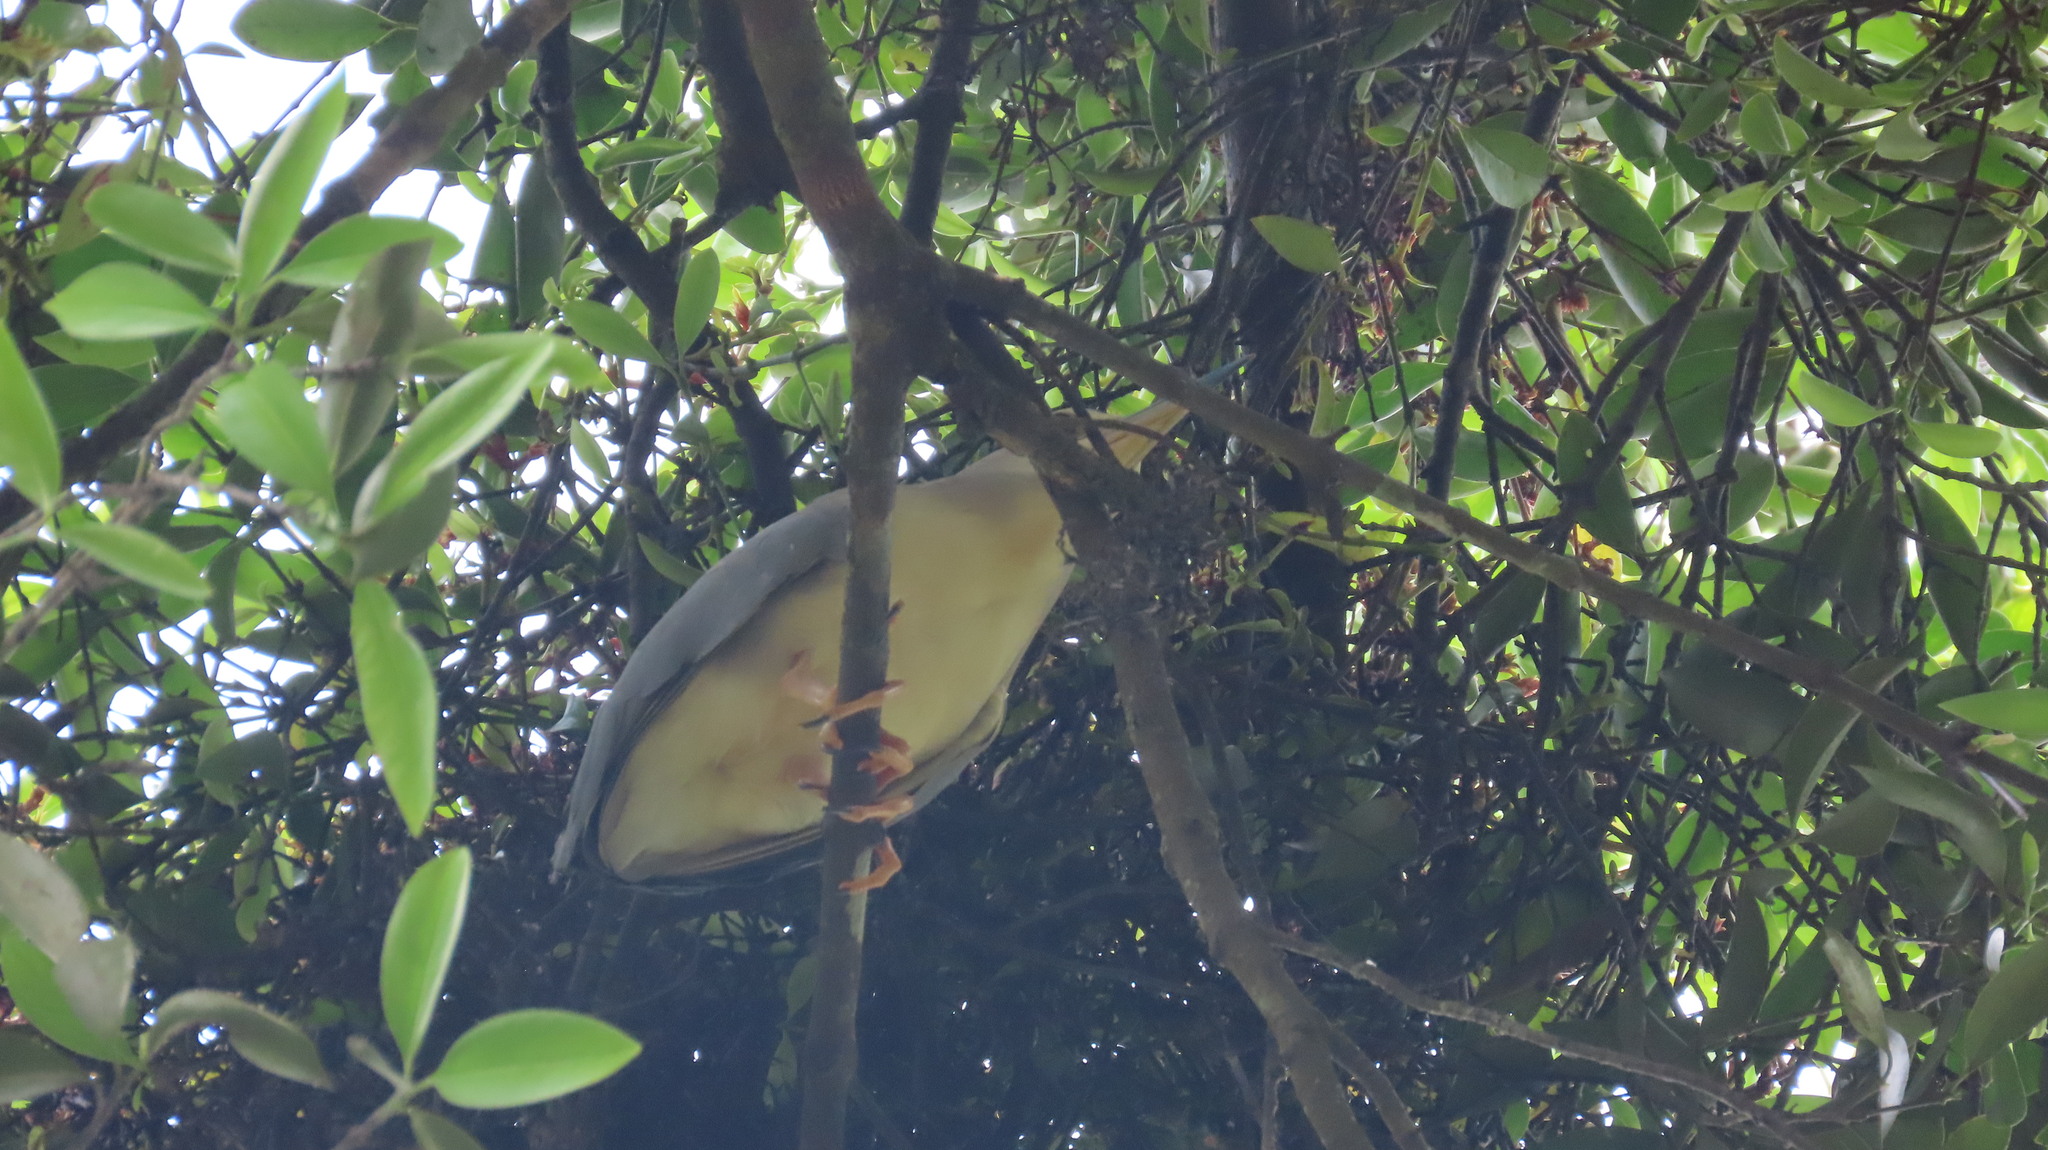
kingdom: Animalia
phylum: Chordata
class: Aves
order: Pelecaniformes
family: Ardeidae
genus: Nycticorax
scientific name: Nycticorax nycticorax
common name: Black-crowned night heron
